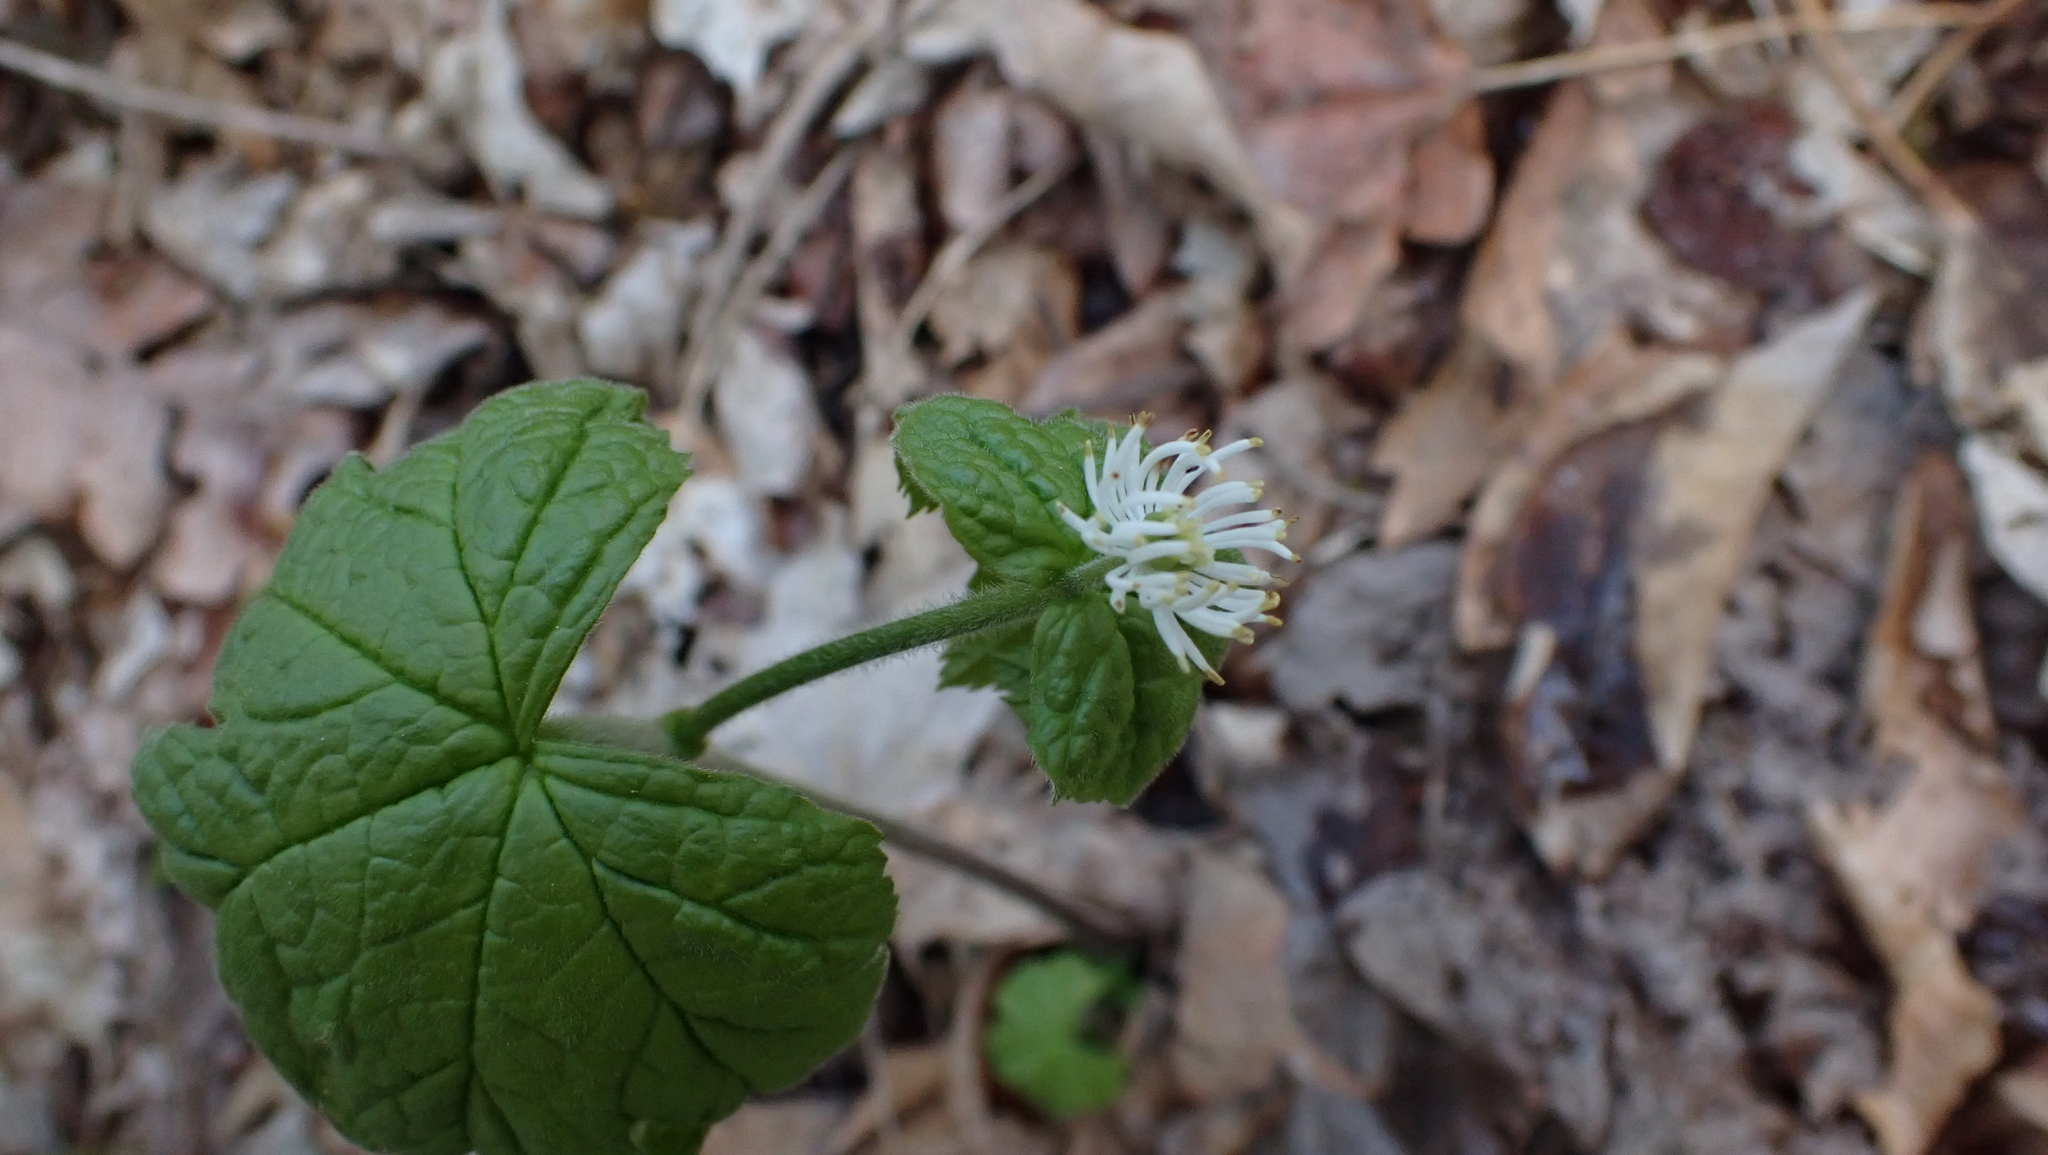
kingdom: Plantae
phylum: Tracheophyta
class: Magnoliopsida
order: Ranunculales
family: Ranunculaceae
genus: Hydrastis
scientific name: Hydrastis canadensis
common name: Goldenseal
